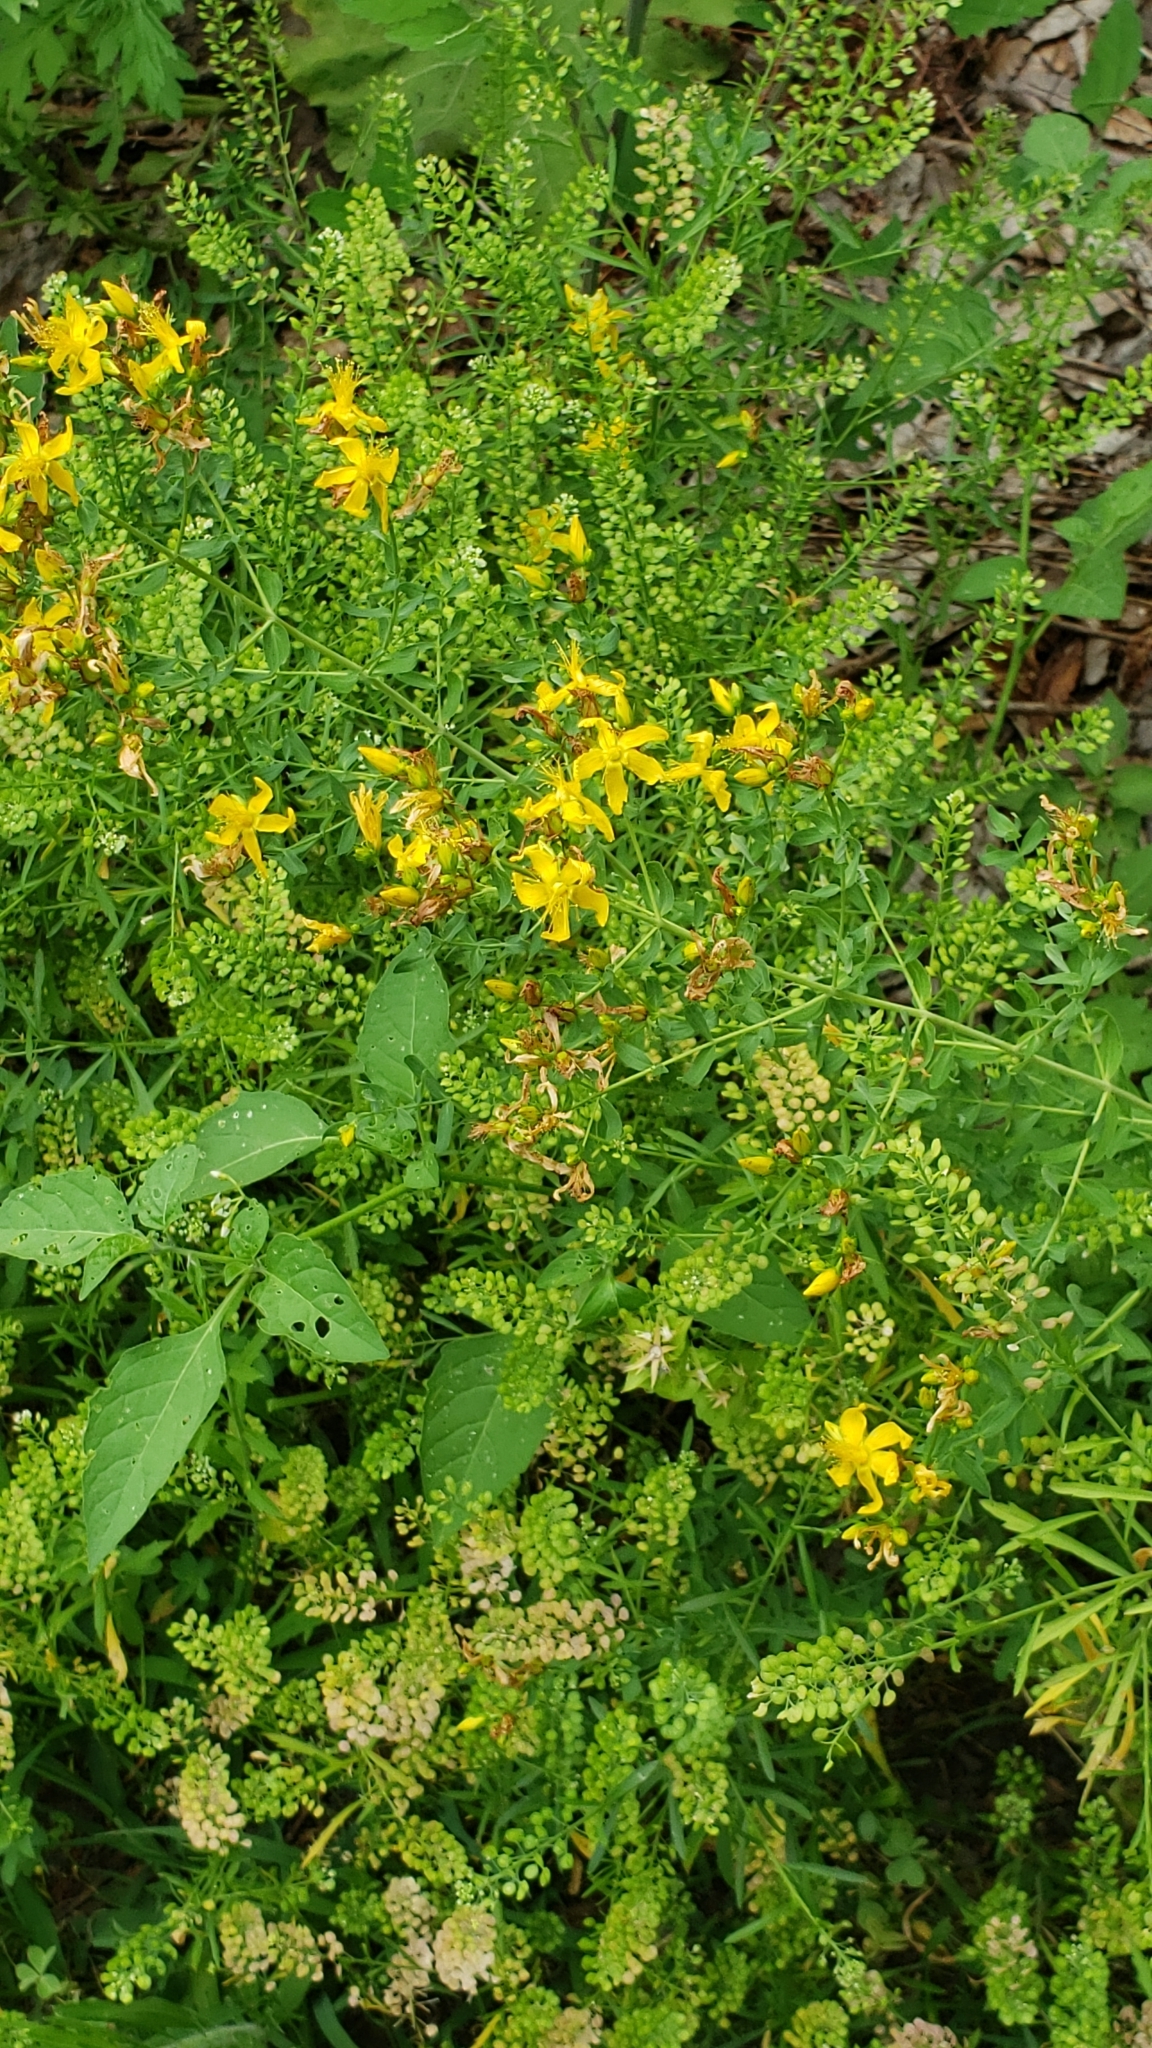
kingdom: Plantae
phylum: Tracheophyta
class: Magnoliopsida
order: Malpighiales
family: Hypericaceae
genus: Hypericum
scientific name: Hypericum perforatum
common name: Common st. johnswort
